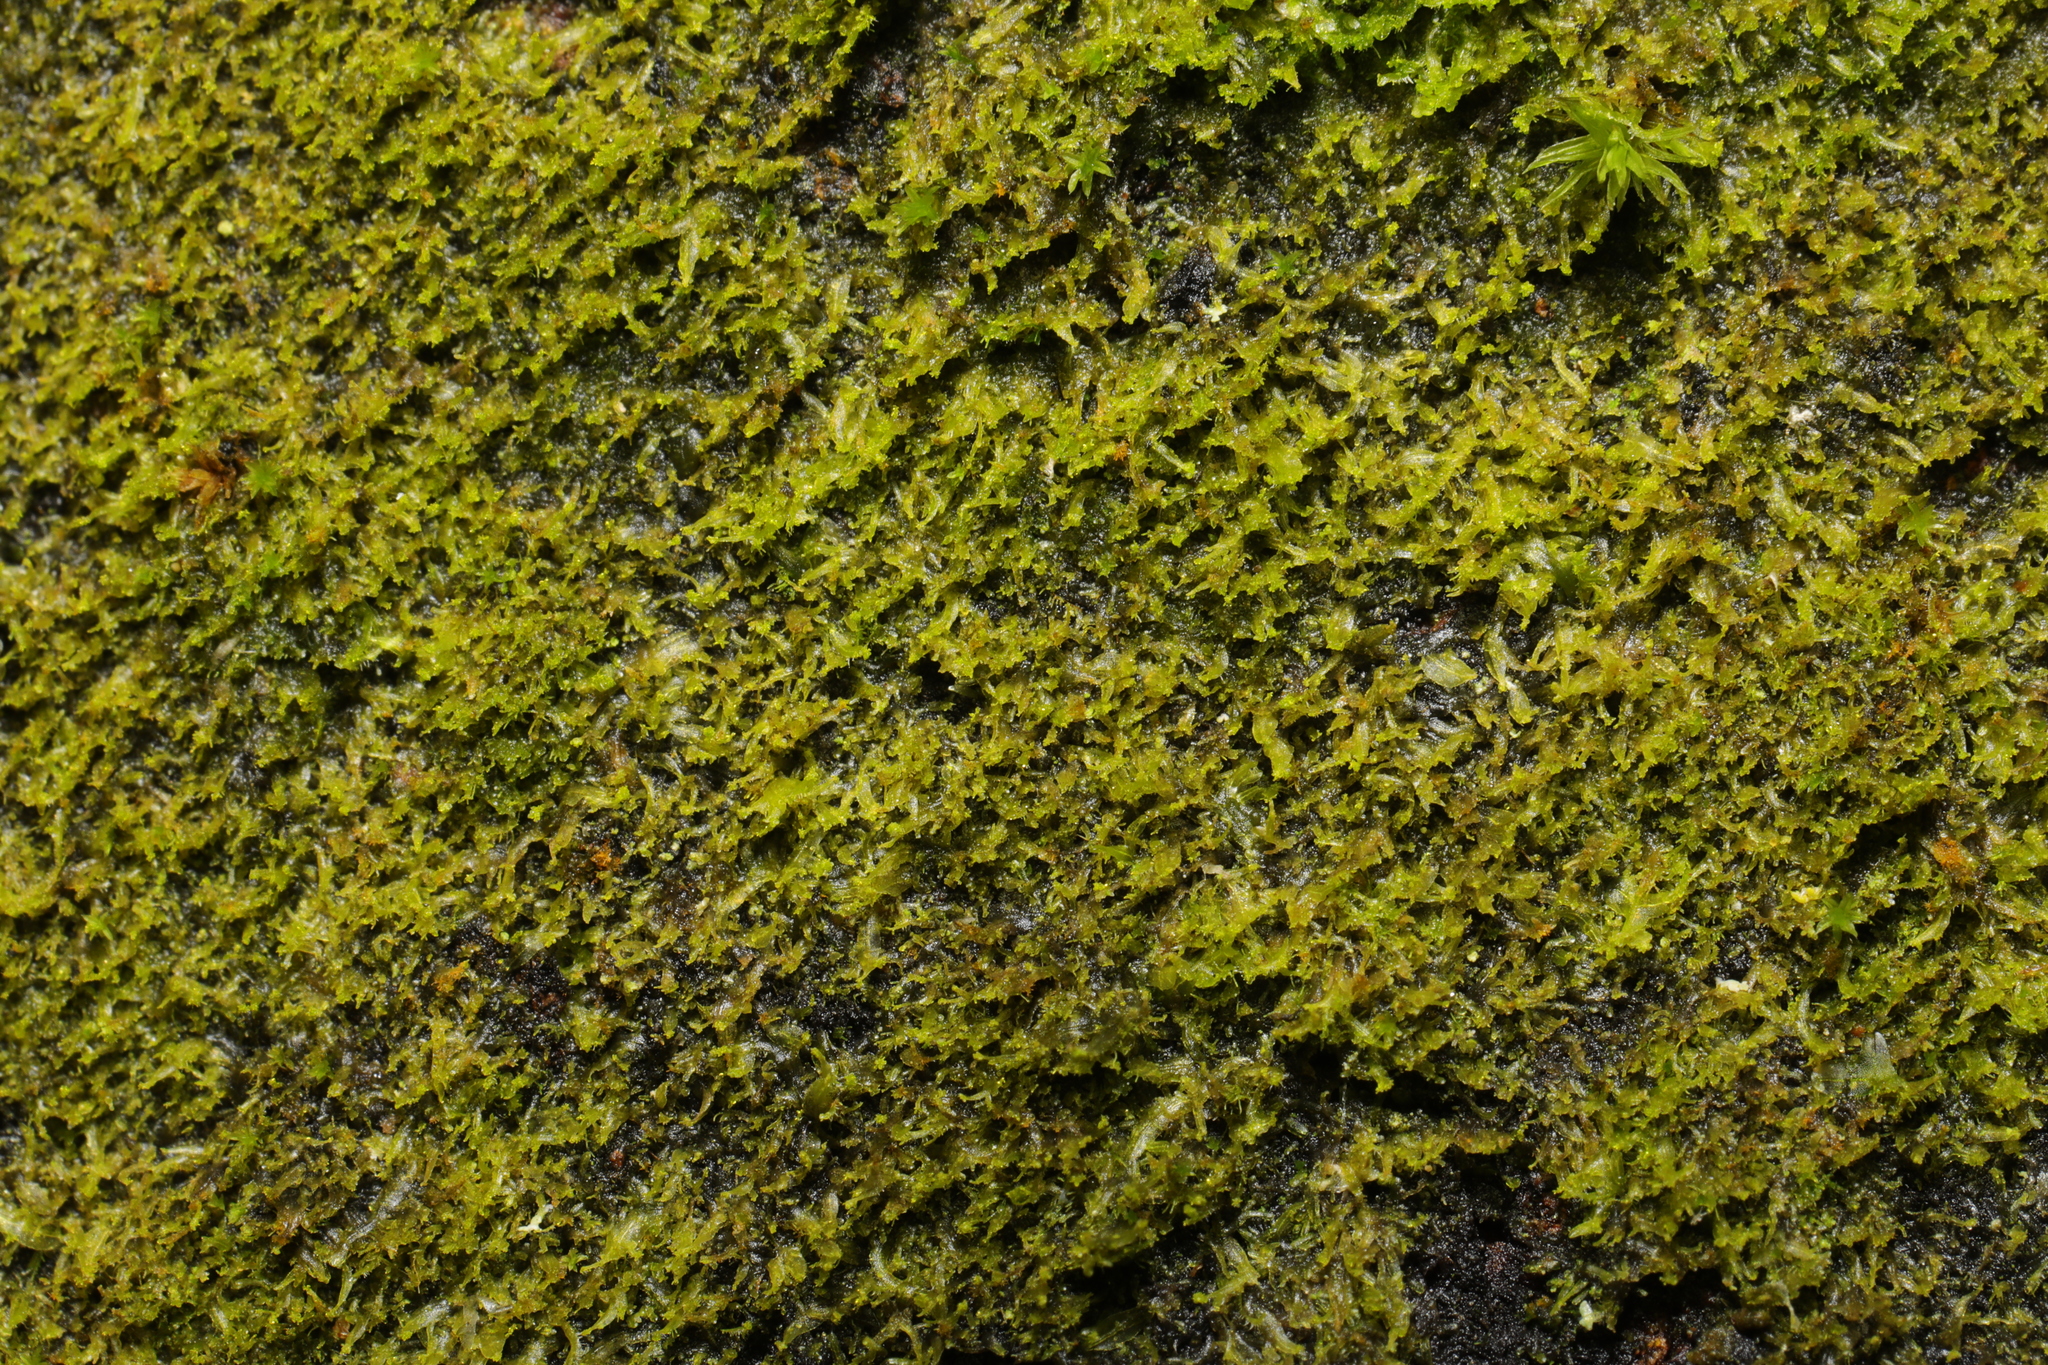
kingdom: Plantae
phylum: Marchantiophyta
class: Jungermanniopsida
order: Metzgeriales
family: Metzgeriaceae
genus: Metzgeria
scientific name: Metzgeria violacea
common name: Blueish veilwort
